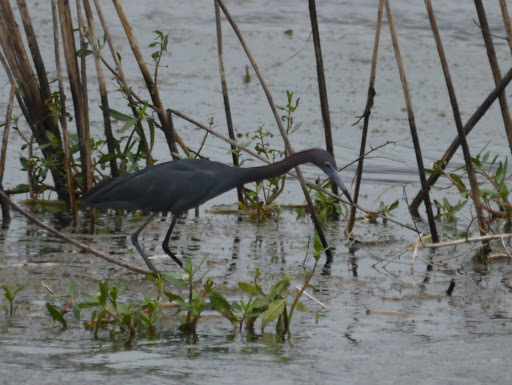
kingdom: Animalia
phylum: Chordata
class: Aves
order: Pelecaniformes
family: Ardeidae
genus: Egretta
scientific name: Egretta caerulea
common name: Little blue heron
